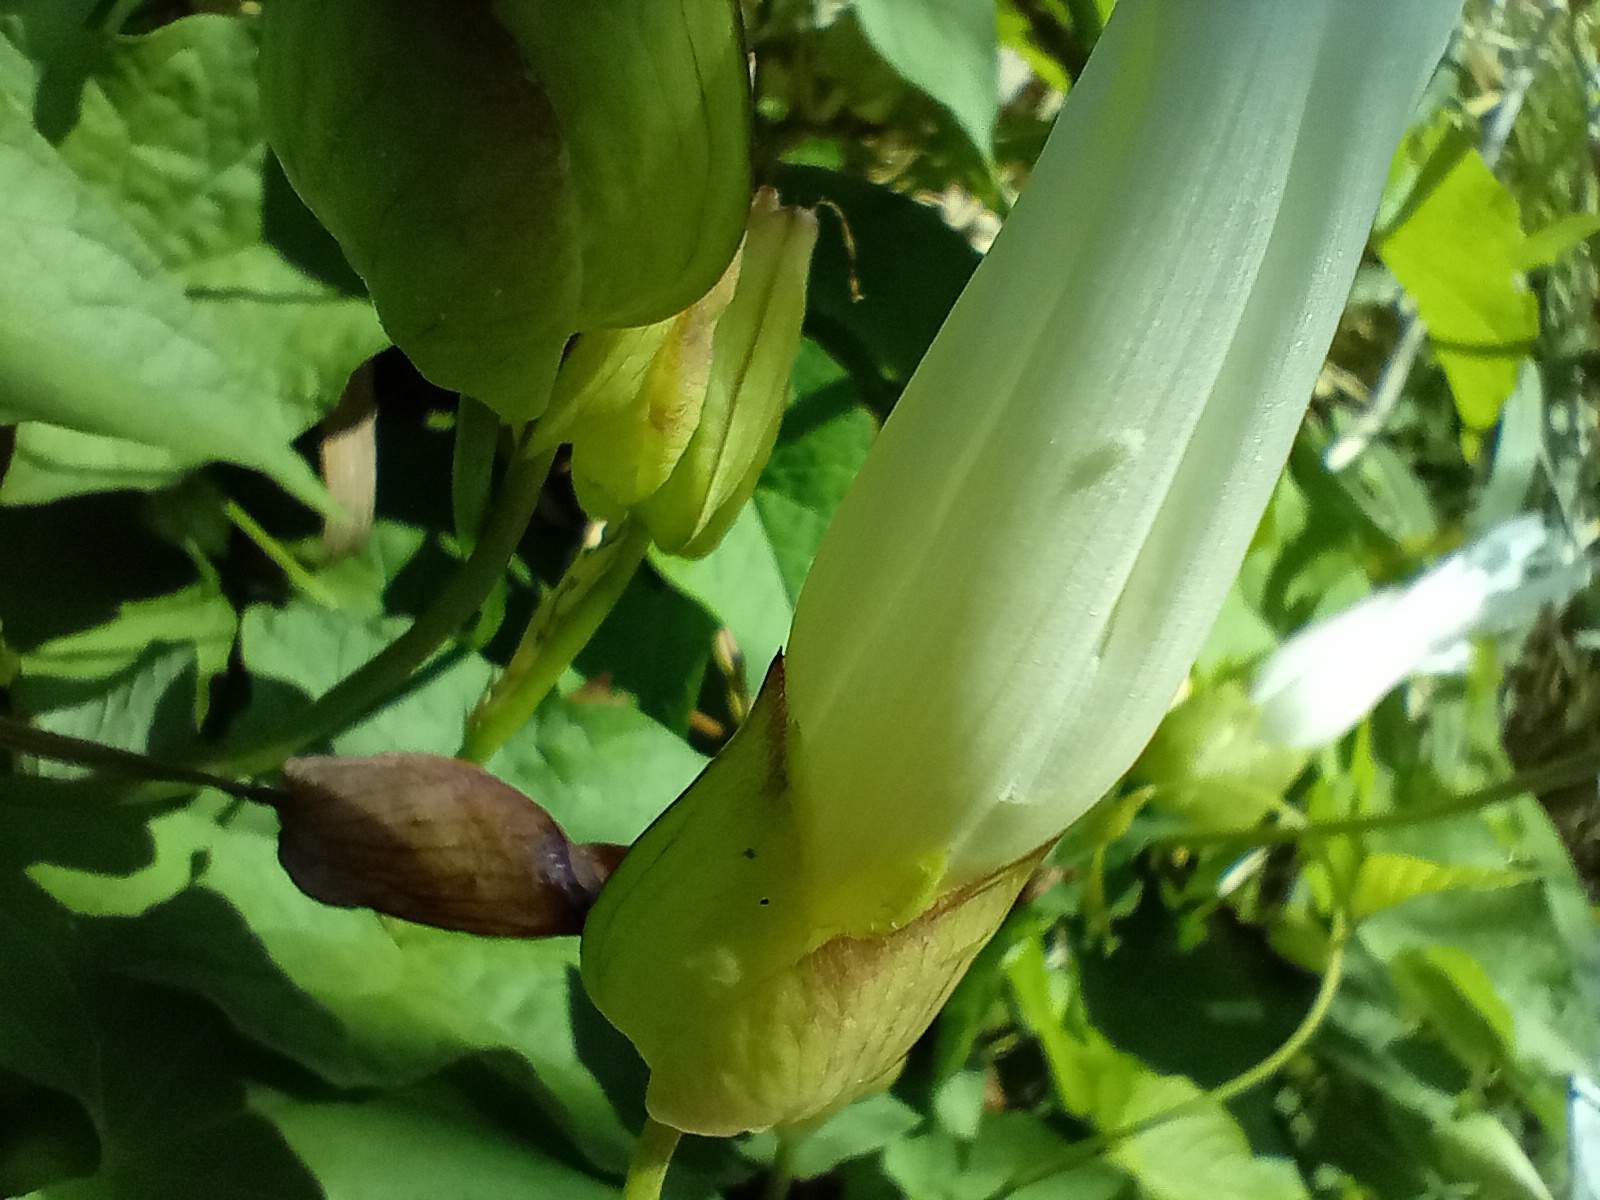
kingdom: Plantae
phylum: Tracheophyta
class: Magnoliopsida
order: Solanales
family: Convolvulaceae
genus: Calystegia
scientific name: Calystegia silvatica
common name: Large bindweed
